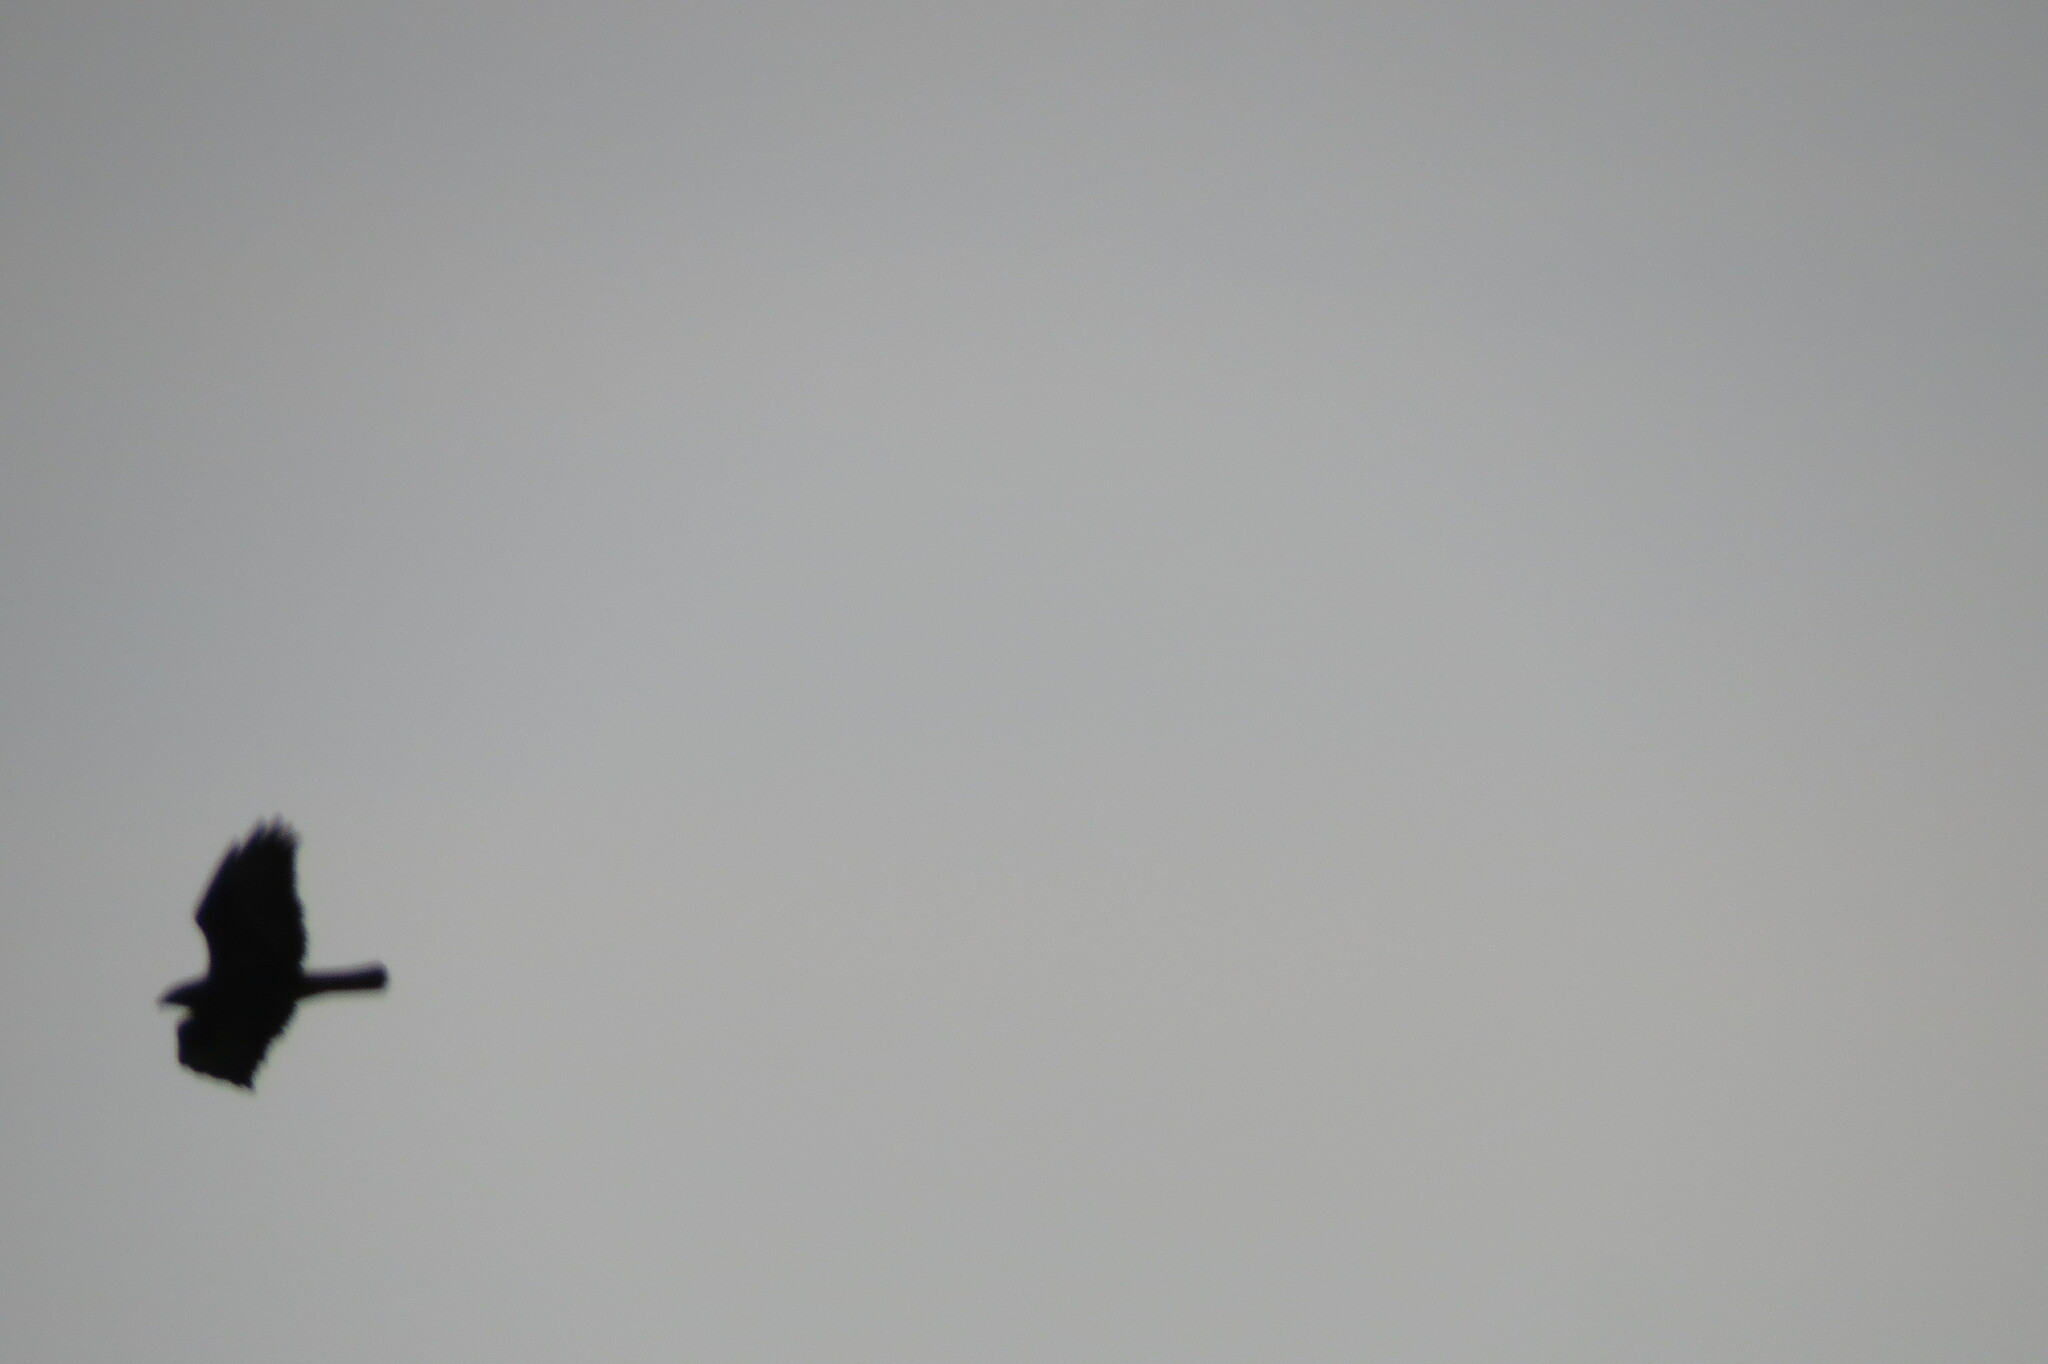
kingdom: Animalia
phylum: Chordata
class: Aves
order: Accipitriformes
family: Accipitridae
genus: Buteo
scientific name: Buteo buteo
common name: Common buzzard
